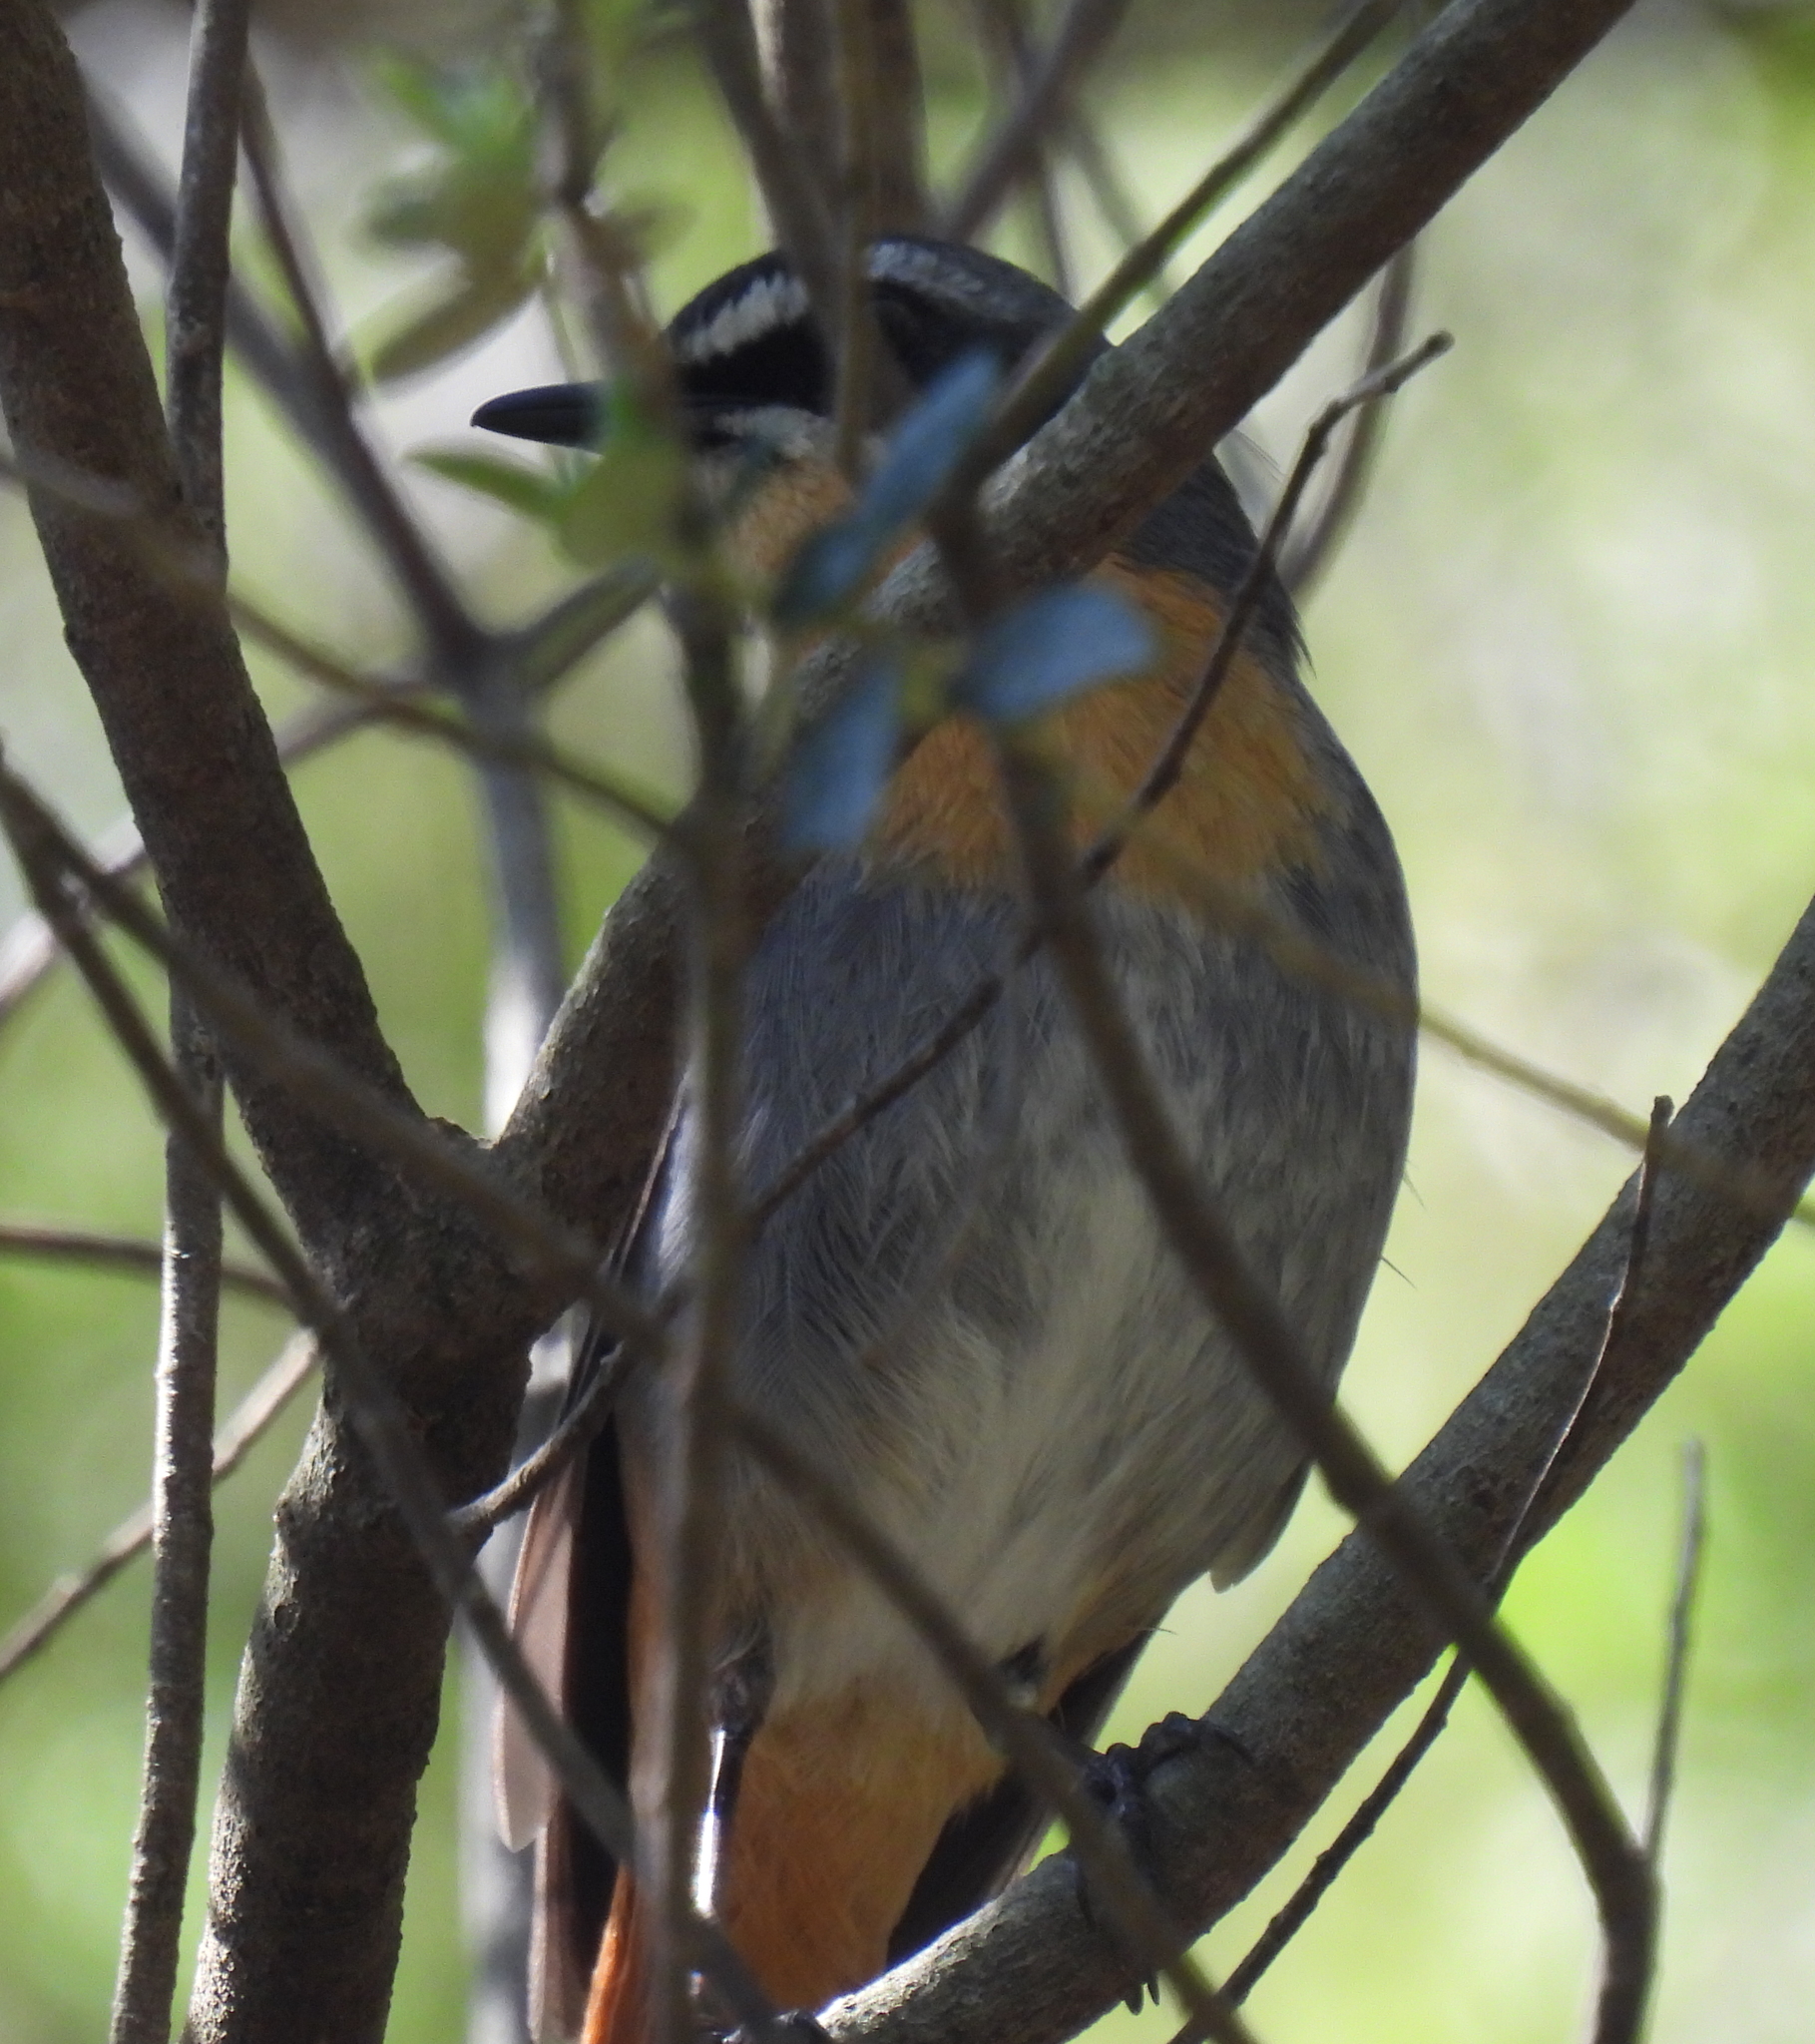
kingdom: Animalia
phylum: Chordata
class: Aves
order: Passeriformes
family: Muscicapidae
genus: Cossypha
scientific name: Cossypha caffra
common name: Cape robin-chat
